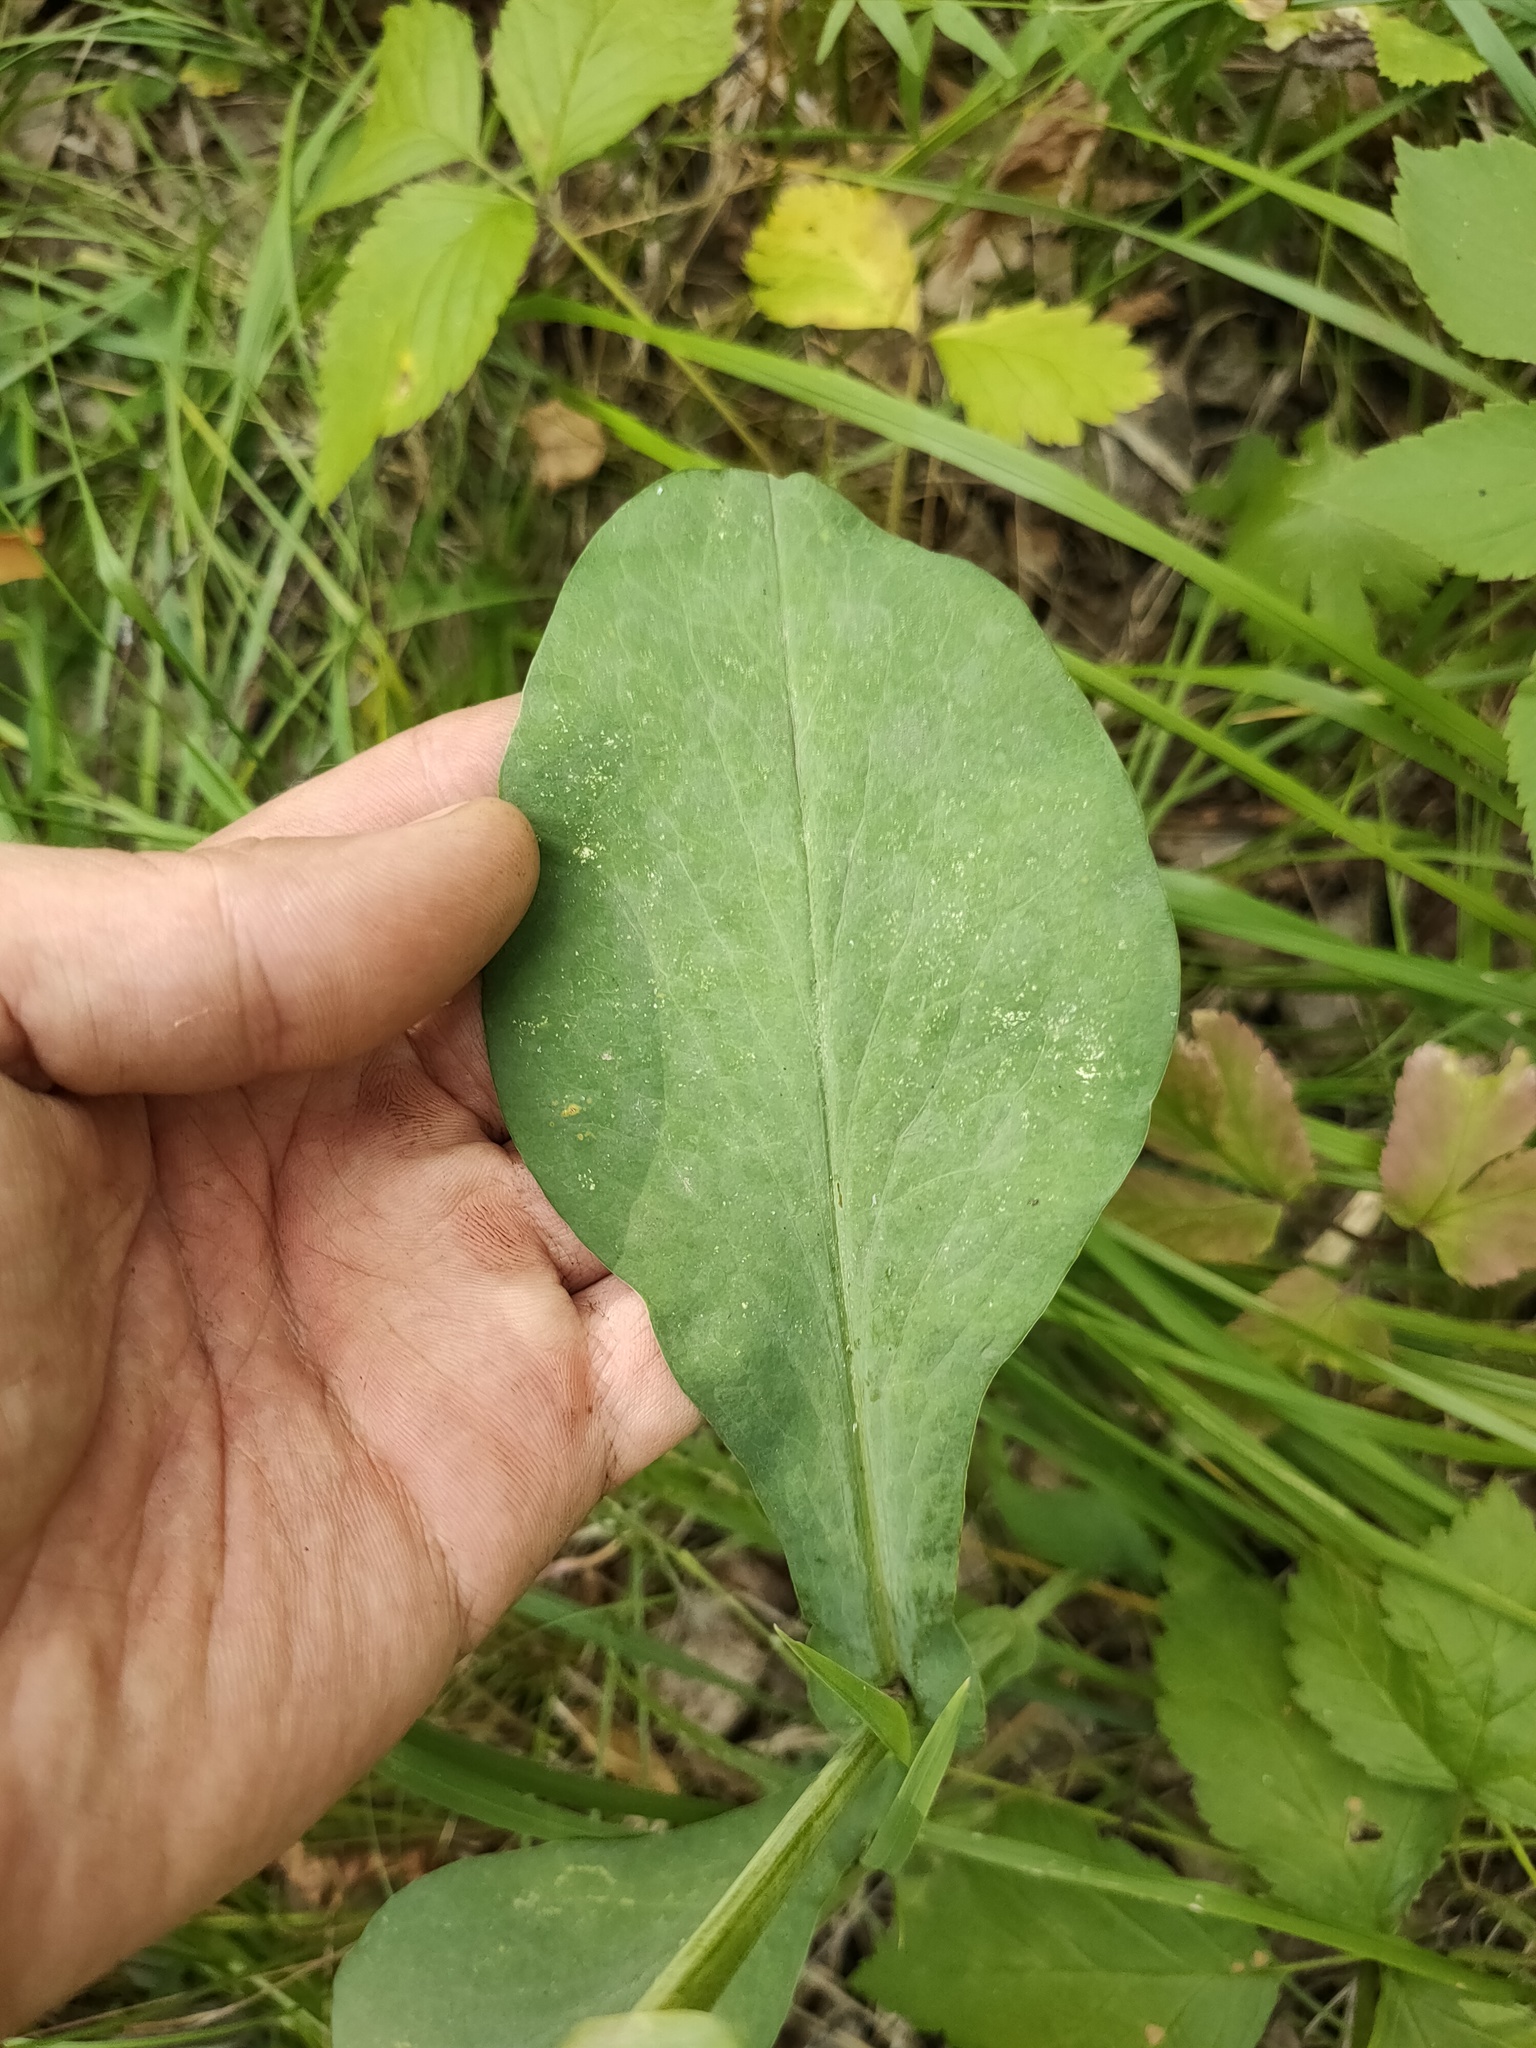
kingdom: Plantae
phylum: Tracheophyta
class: Magnoliopsida
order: Apiales
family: Apiaceae
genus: Bupleurum
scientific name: Bupleurum aureum
